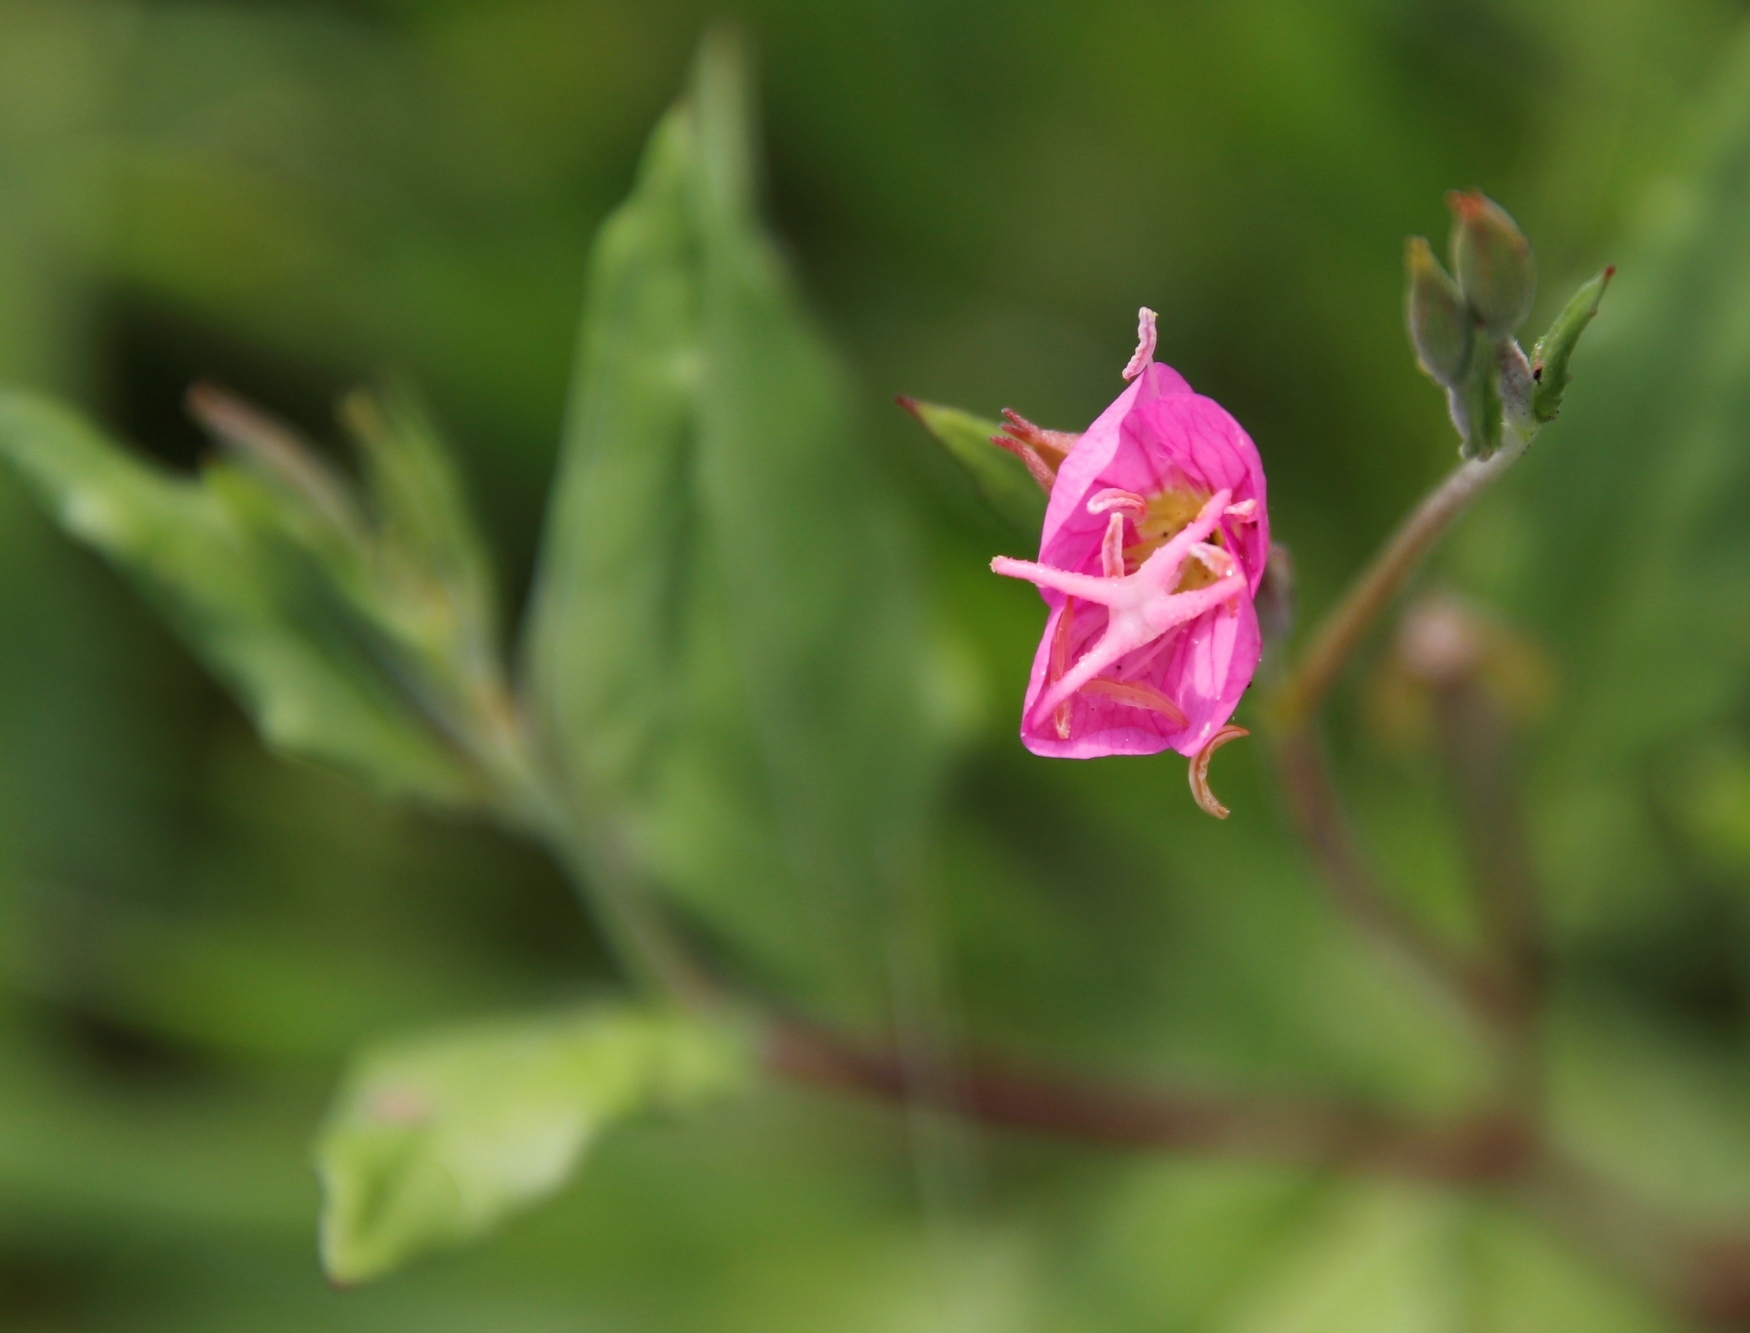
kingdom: Plantae
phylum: Tracheophyta
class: Magnoliopsida
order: Myrtales
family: Onagraceae
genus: Oenothera
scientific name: Oenothera rosea
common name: Rosy evening-primrose
